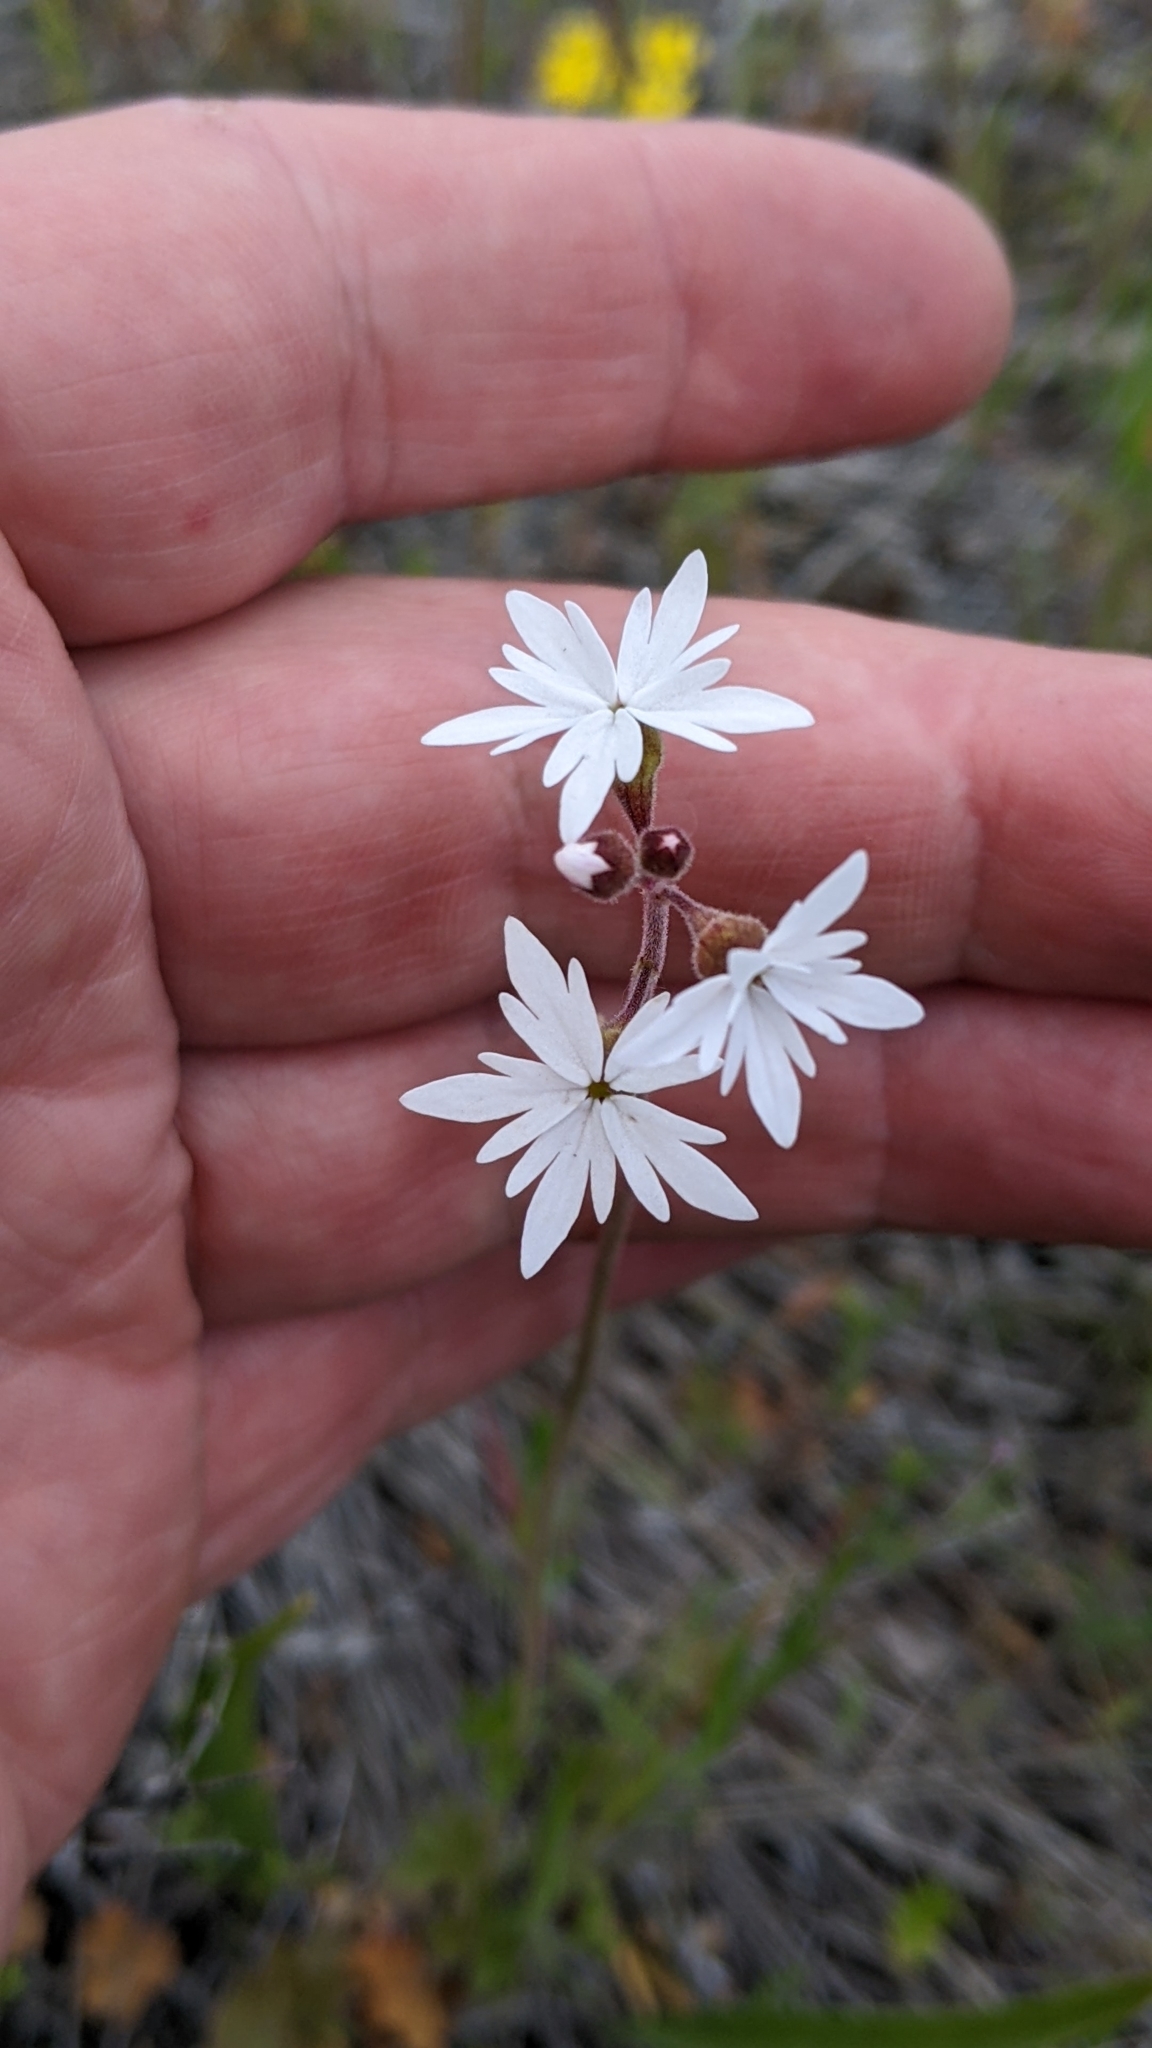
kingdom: Plantae
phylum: Tracheophyta
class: Magnoliopsida
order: Saxifragales
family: Saxifragaceae
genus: Lithophragma
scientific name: Lithophragma parviflorum
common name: Small-flowered fringe-cup
